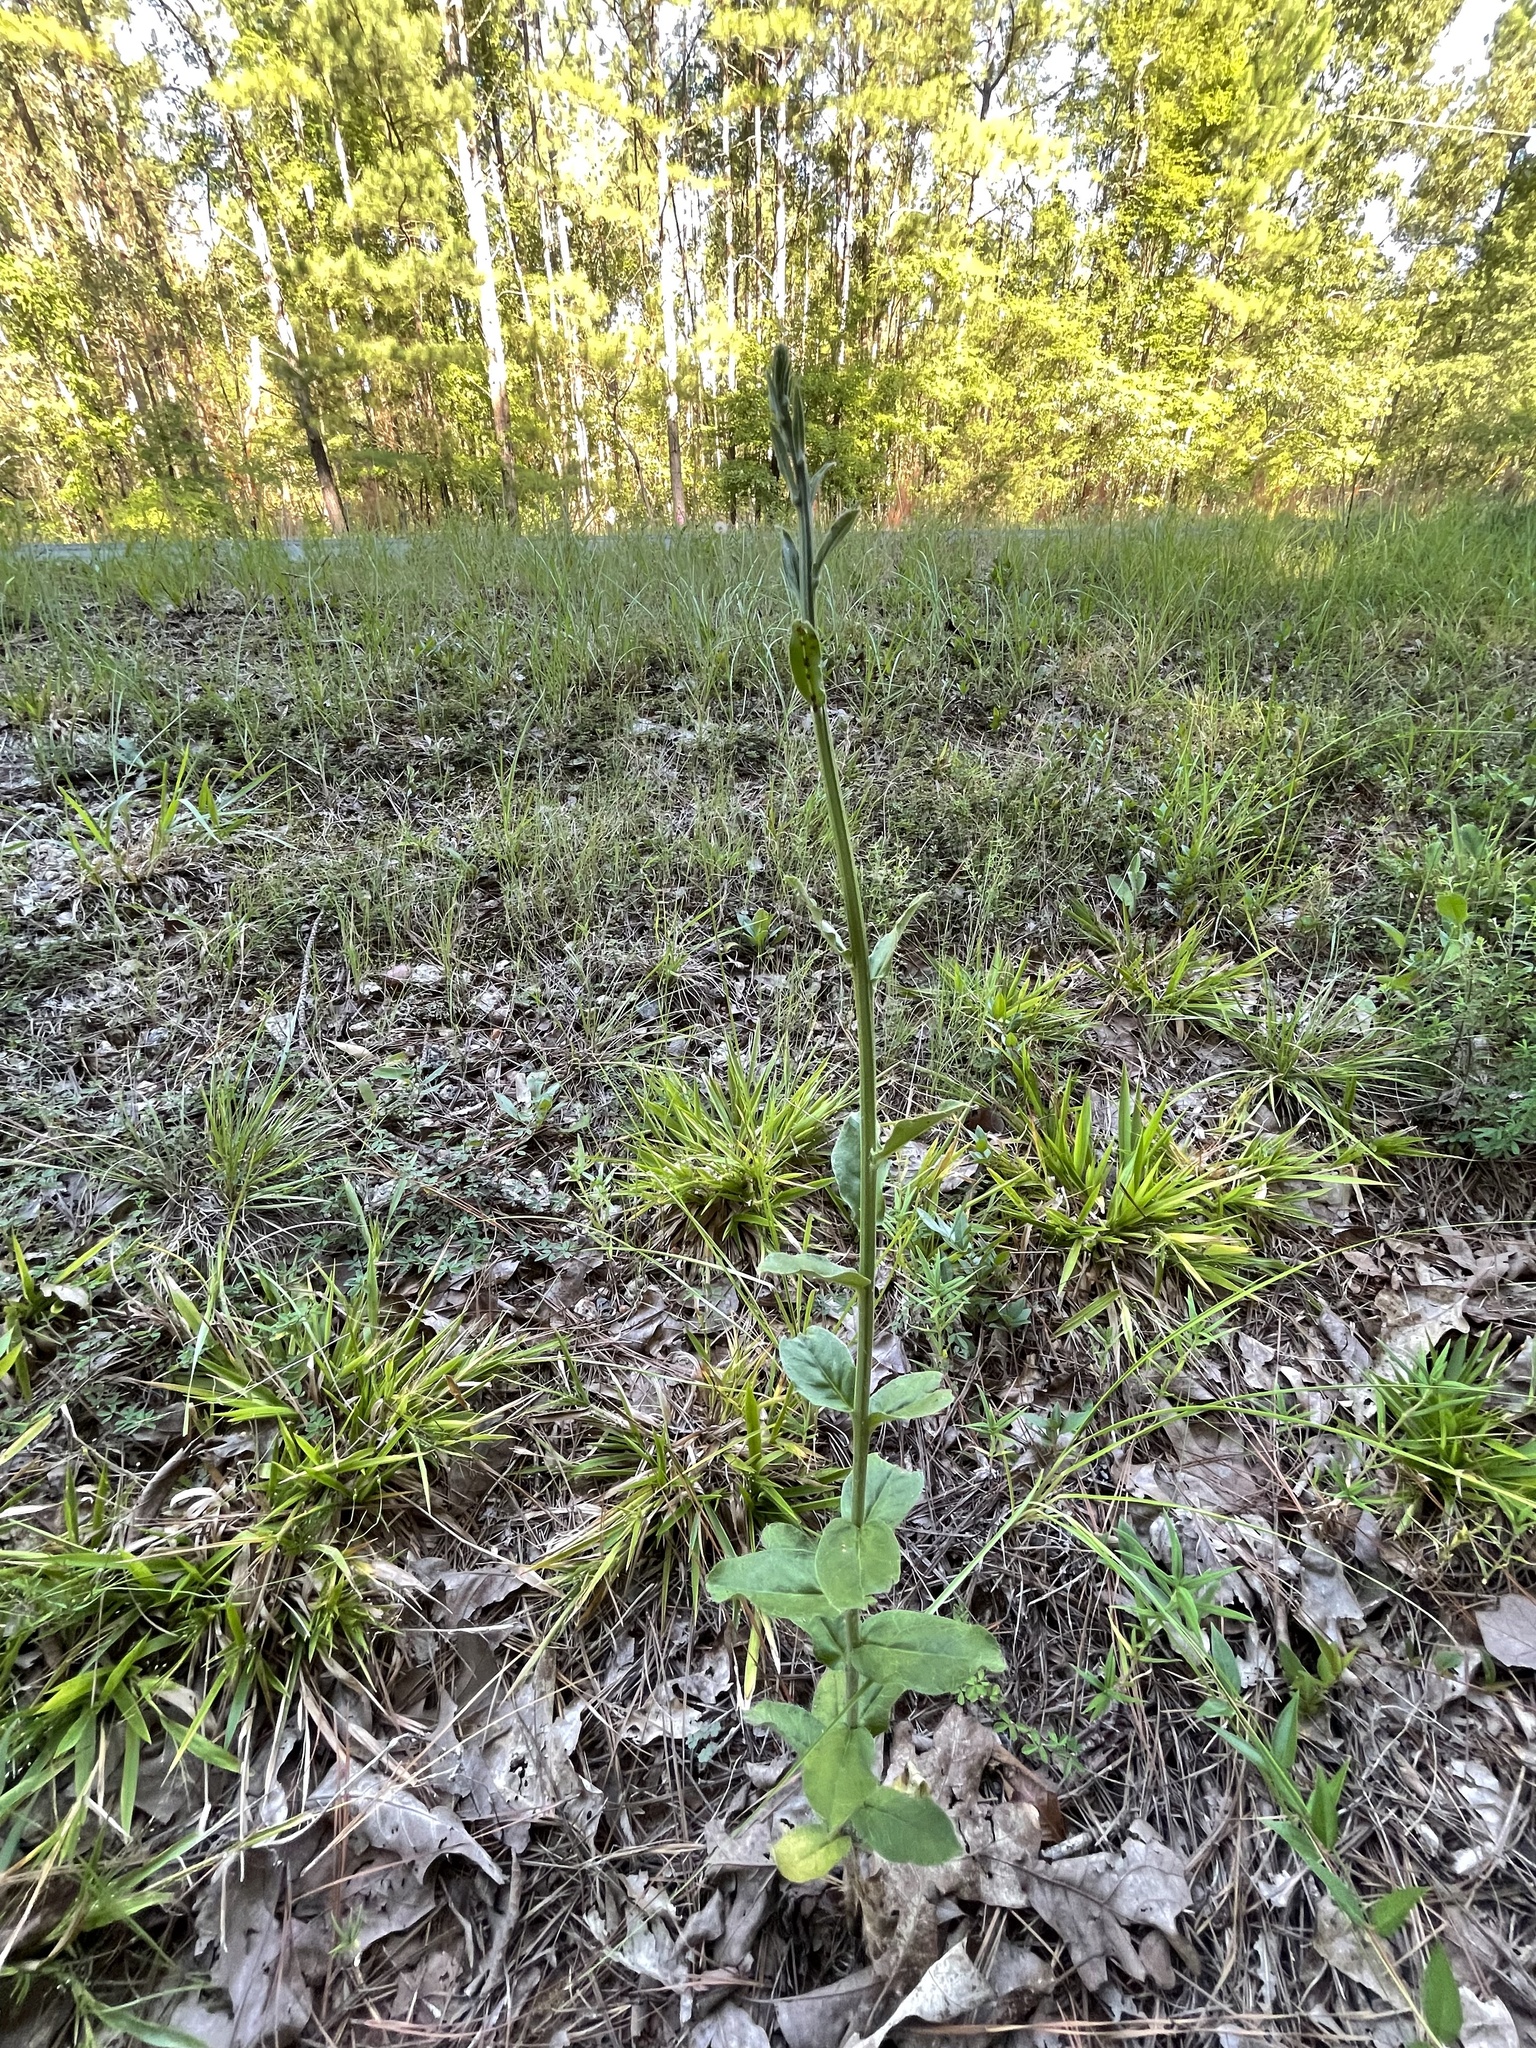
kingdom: Plantae
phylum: Tracheophyta
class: Magnoliopsida
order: Asterales
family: Asteraceae
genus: Hieracium
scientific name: Hieracium gronovii
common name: Beaked hawkweed
